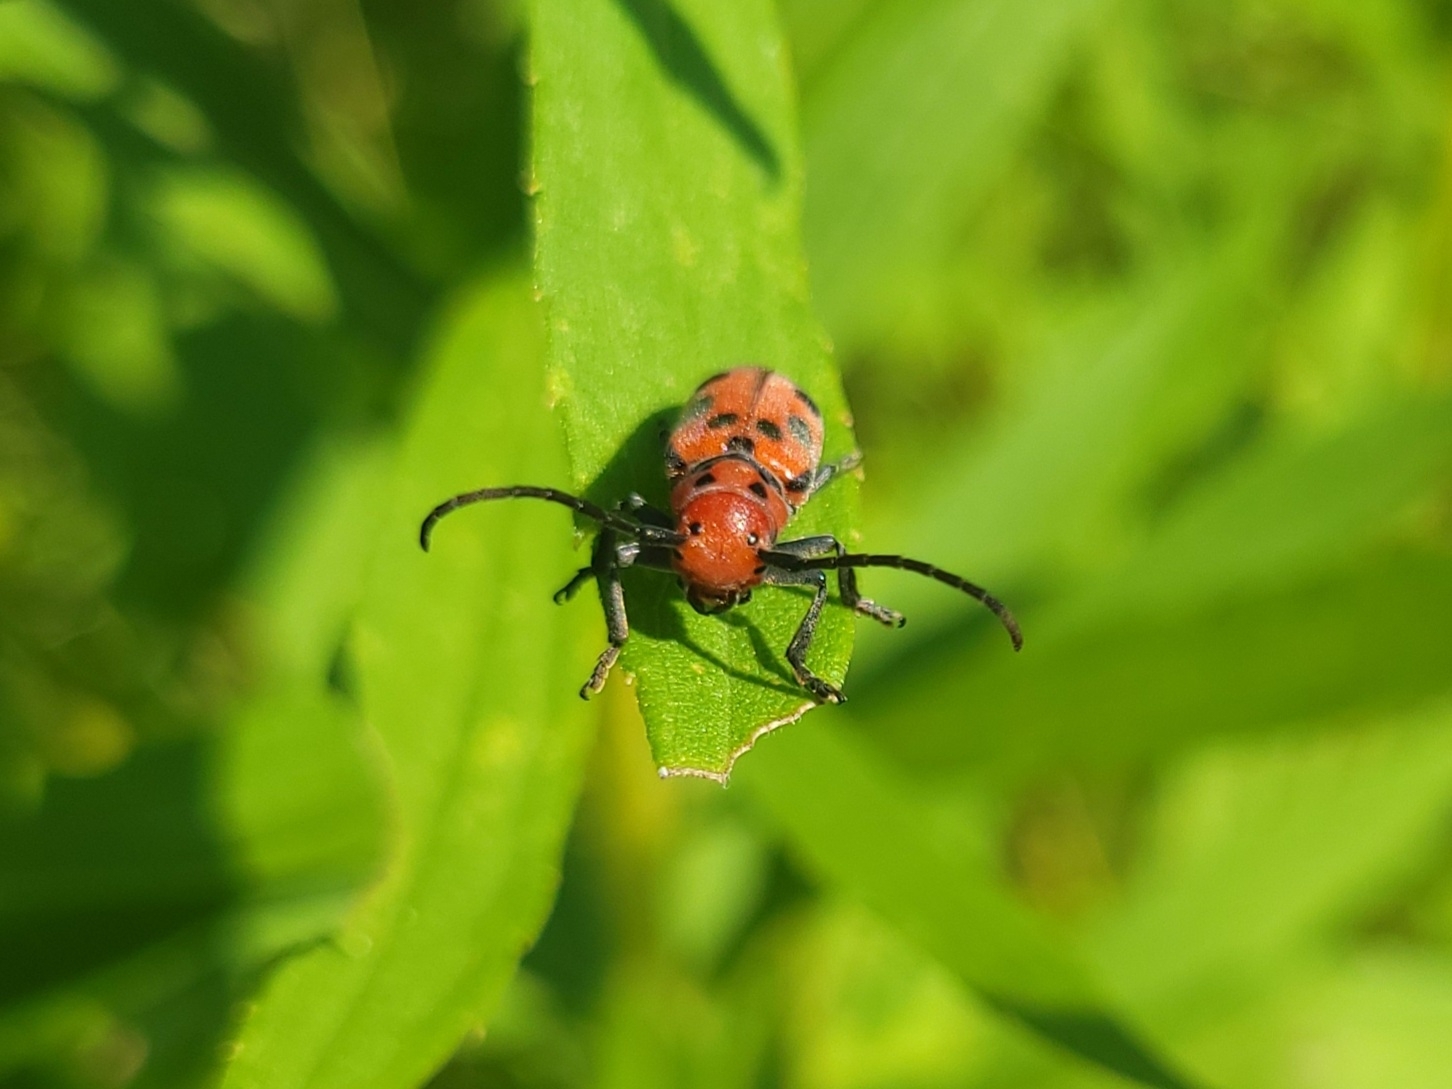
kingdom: Animalia
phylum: Arthropoda
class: Insecta
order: Coleoptera
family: Cerambycidae
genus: Tetraopes
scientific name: Tetraopes tetrophthalmus
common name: Red milkweed beetle
